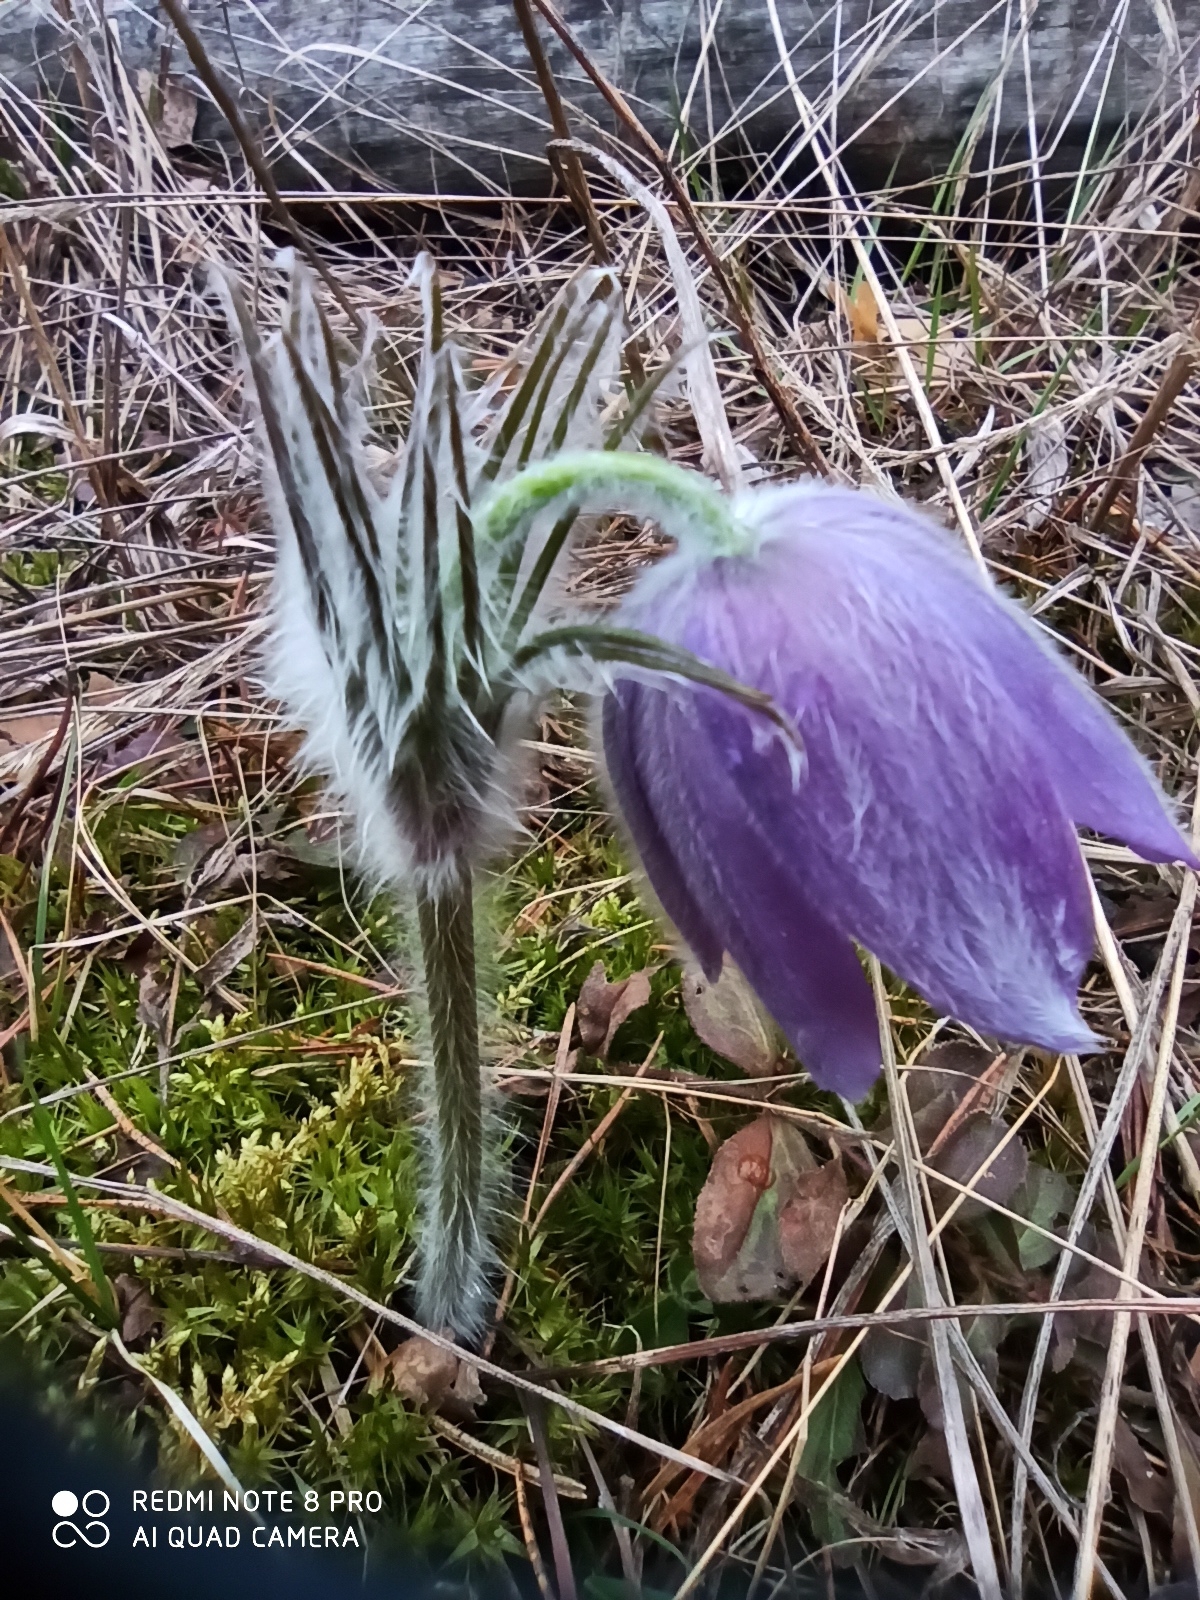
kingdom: Plantae
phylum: Tracheophyta
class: Magnoliopsida
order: Ranunculales
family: Ranunculaceae
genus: Pulsatilla
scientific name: Pulsatilla patens
